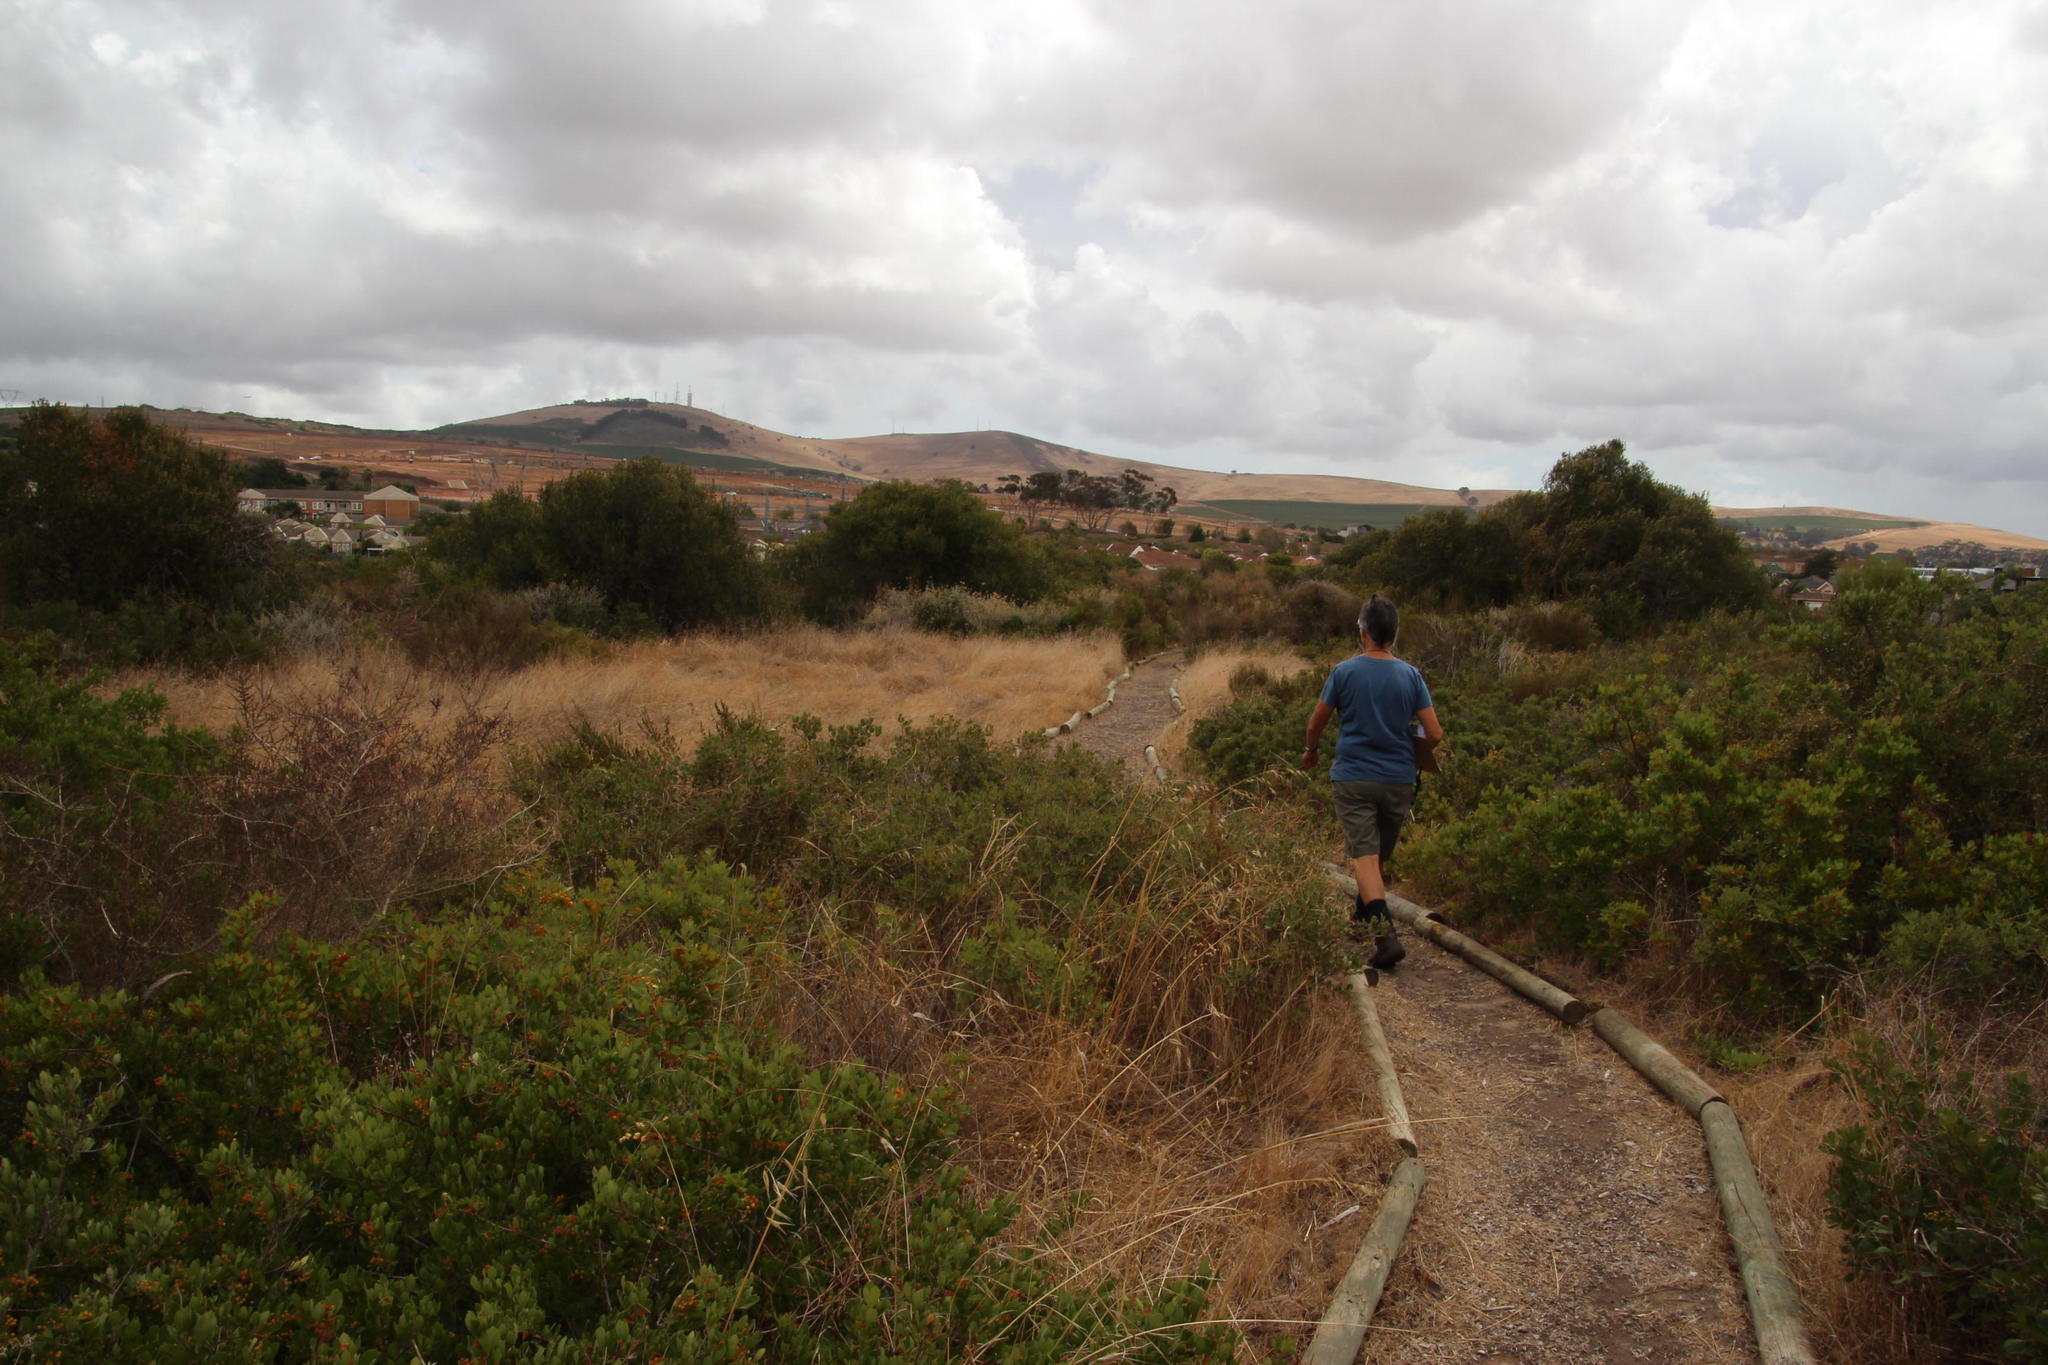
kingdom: Plantae
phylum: Tracheophyta
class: Magnoliopsida
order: Sapindales
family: Anacardiaceae
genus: Searsia
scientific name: Searsia laevigata
